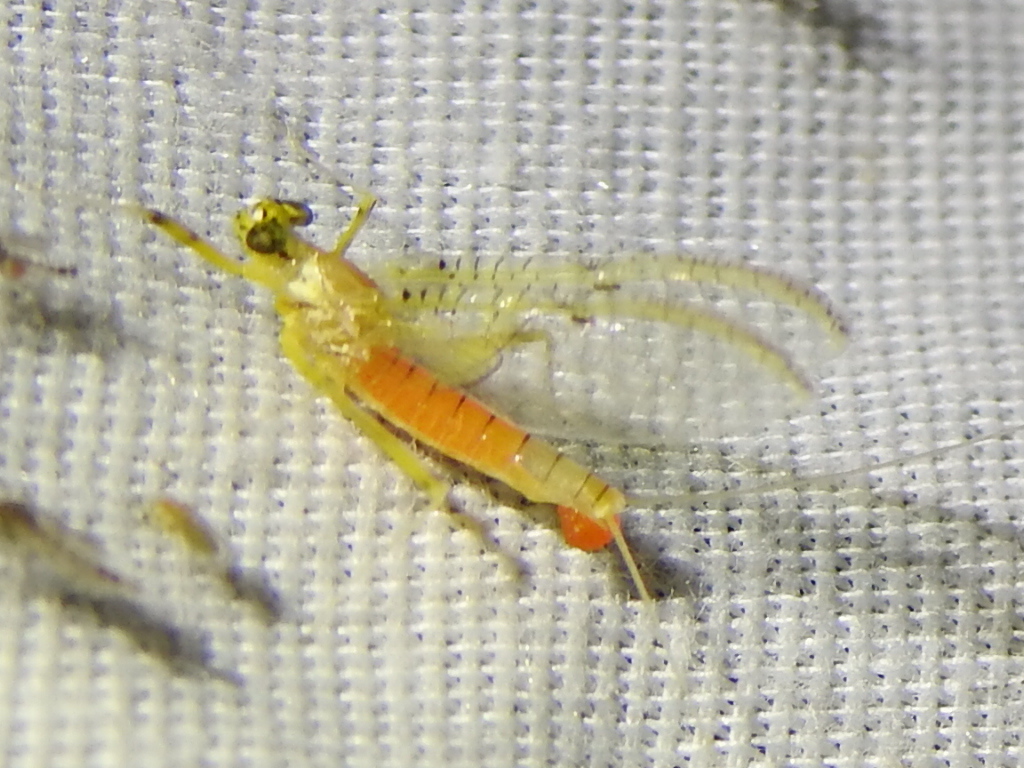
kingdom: Animalia
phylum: Arthropoda
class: Insecta
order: Ephemeroptera
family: Heptageniidae
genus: Stenacron
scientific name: Stenacron interpunctatum
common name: Orange cahill
